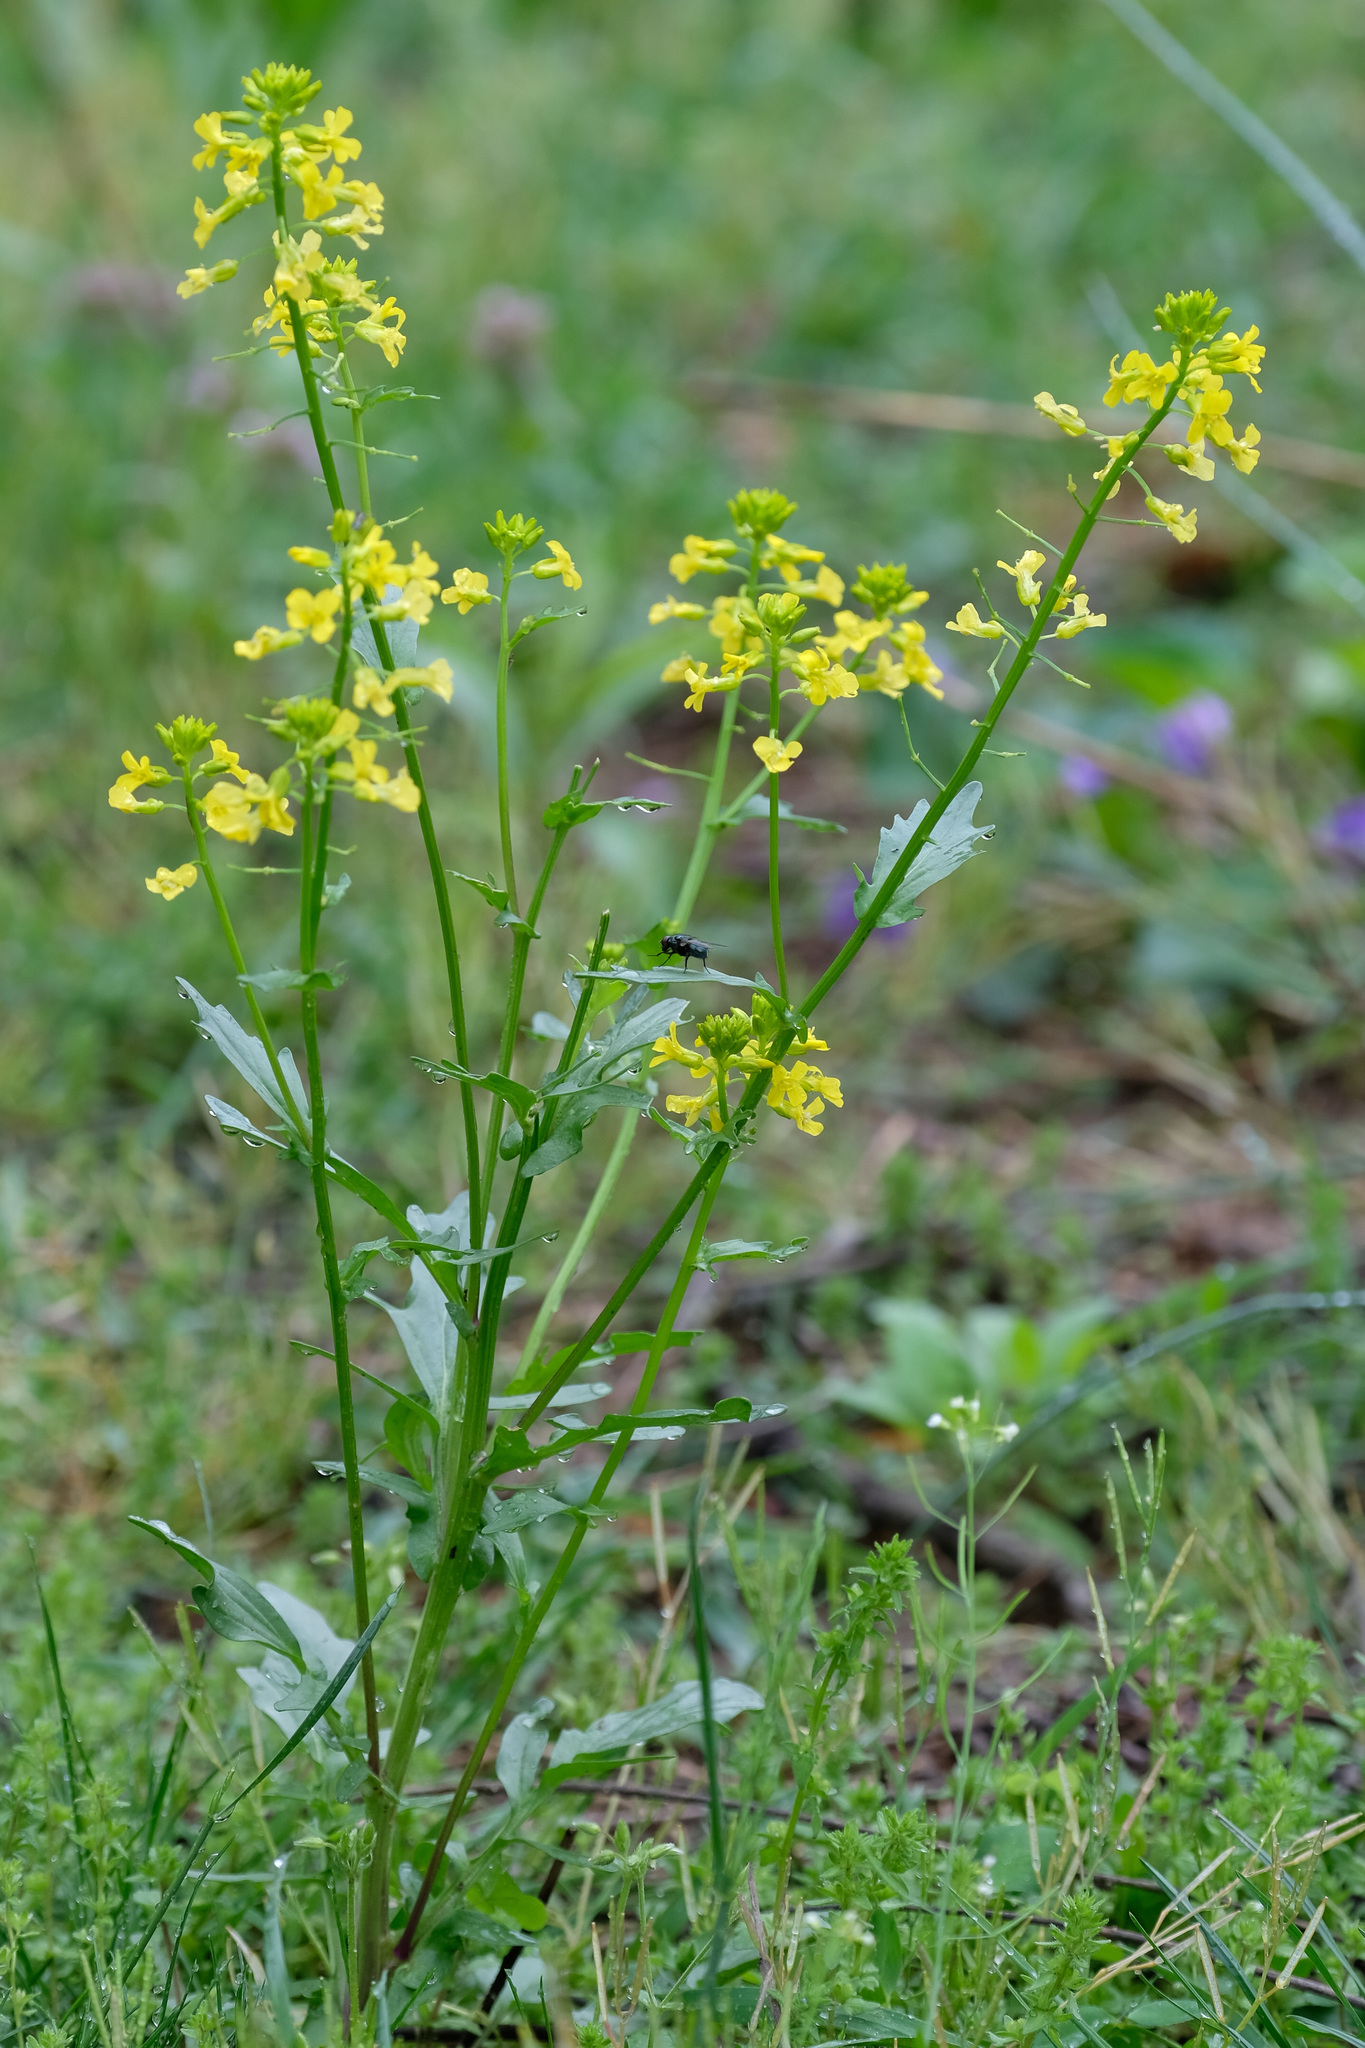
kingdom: Plantae
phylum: Tracheophyta
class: Magnoliopsida
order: Brassicales
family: Brassicaceae
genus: Barbarea
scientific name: Barbarea vulgaris
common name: Cressy-greens
